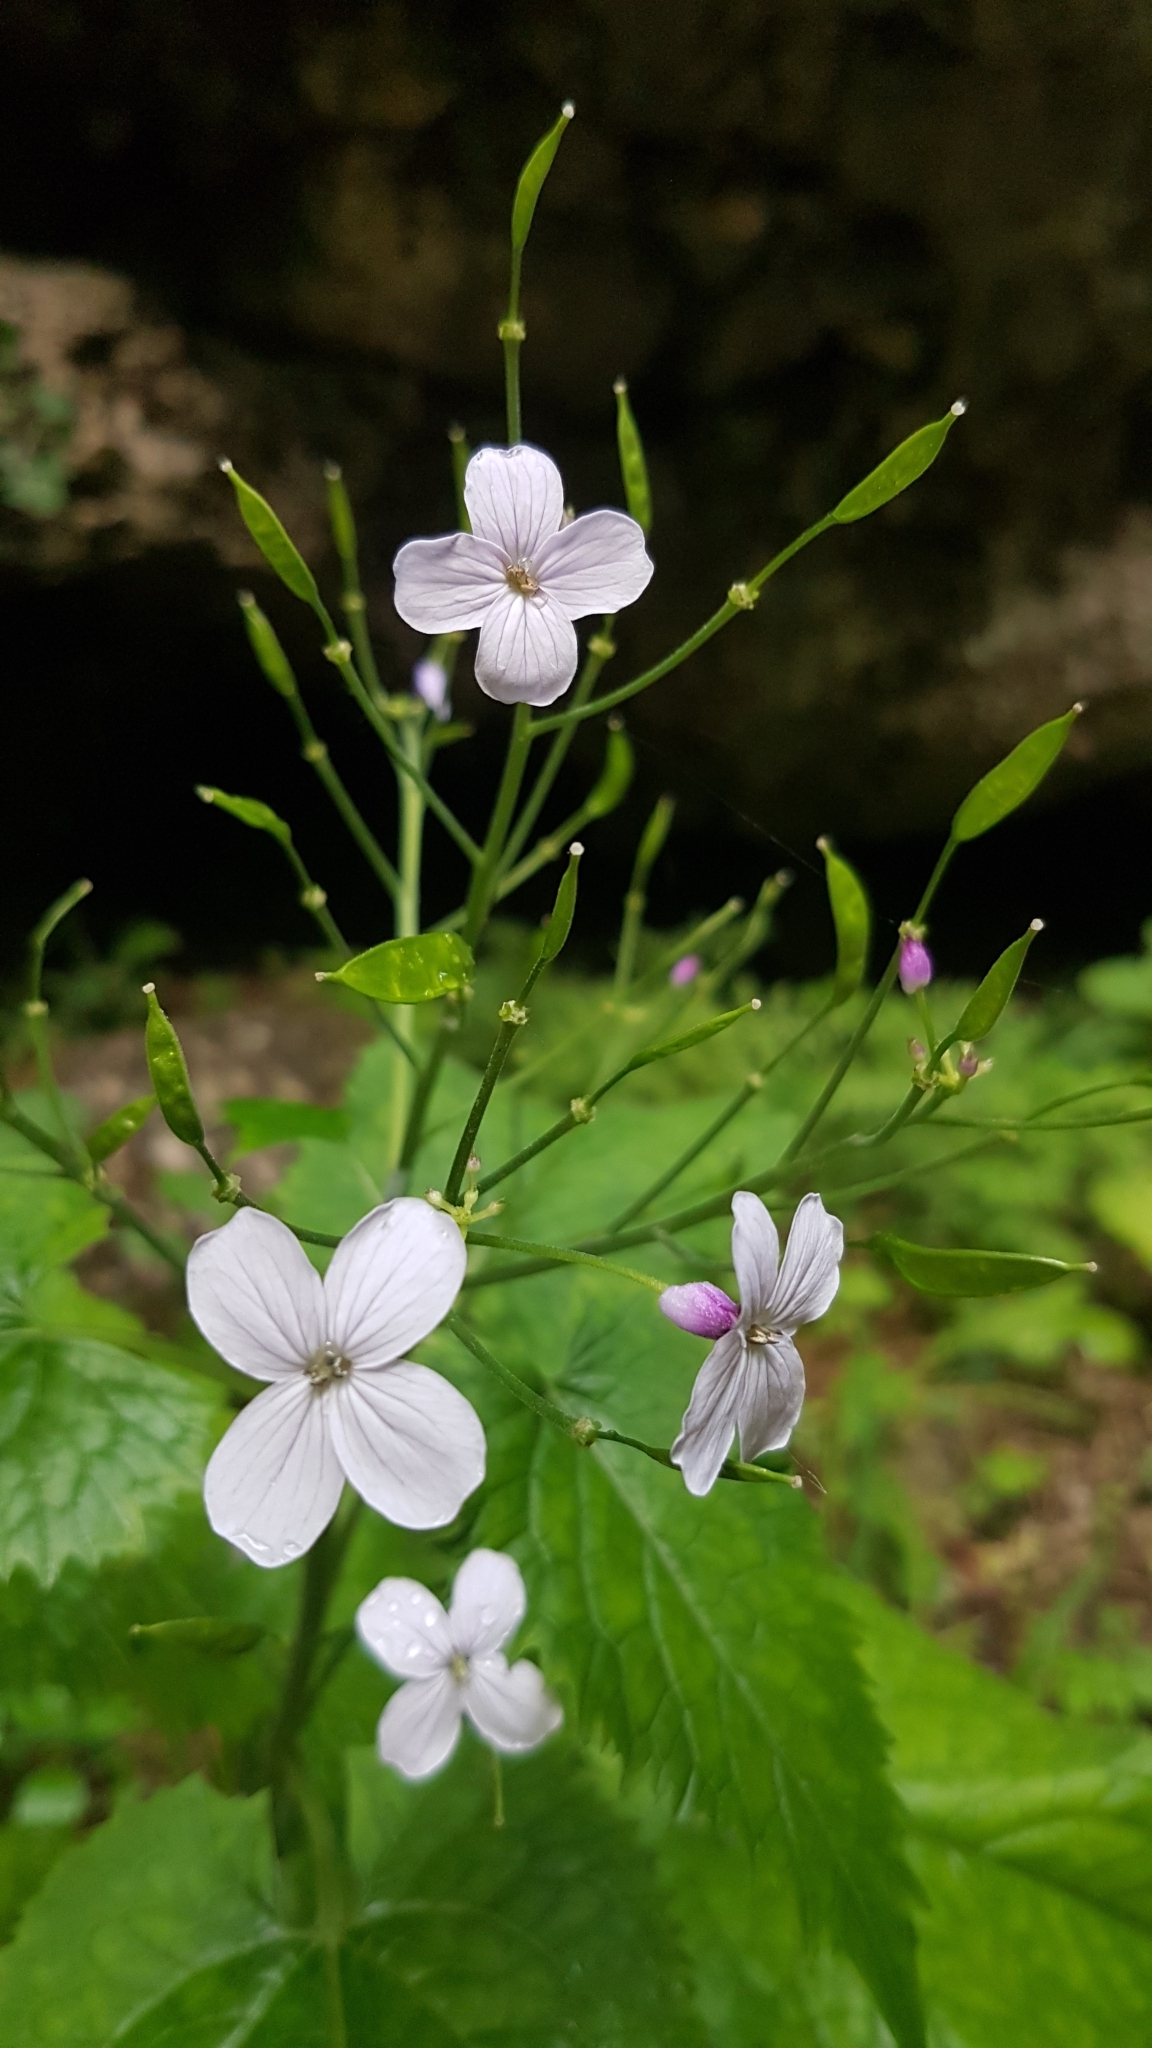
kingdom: Plantae
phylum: Tracheophyta
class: Magnoliopsida
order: Brassicales
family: Brassicaceae
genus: Lunaria
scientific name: Lunaria rediviva
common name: Perennial honesty
